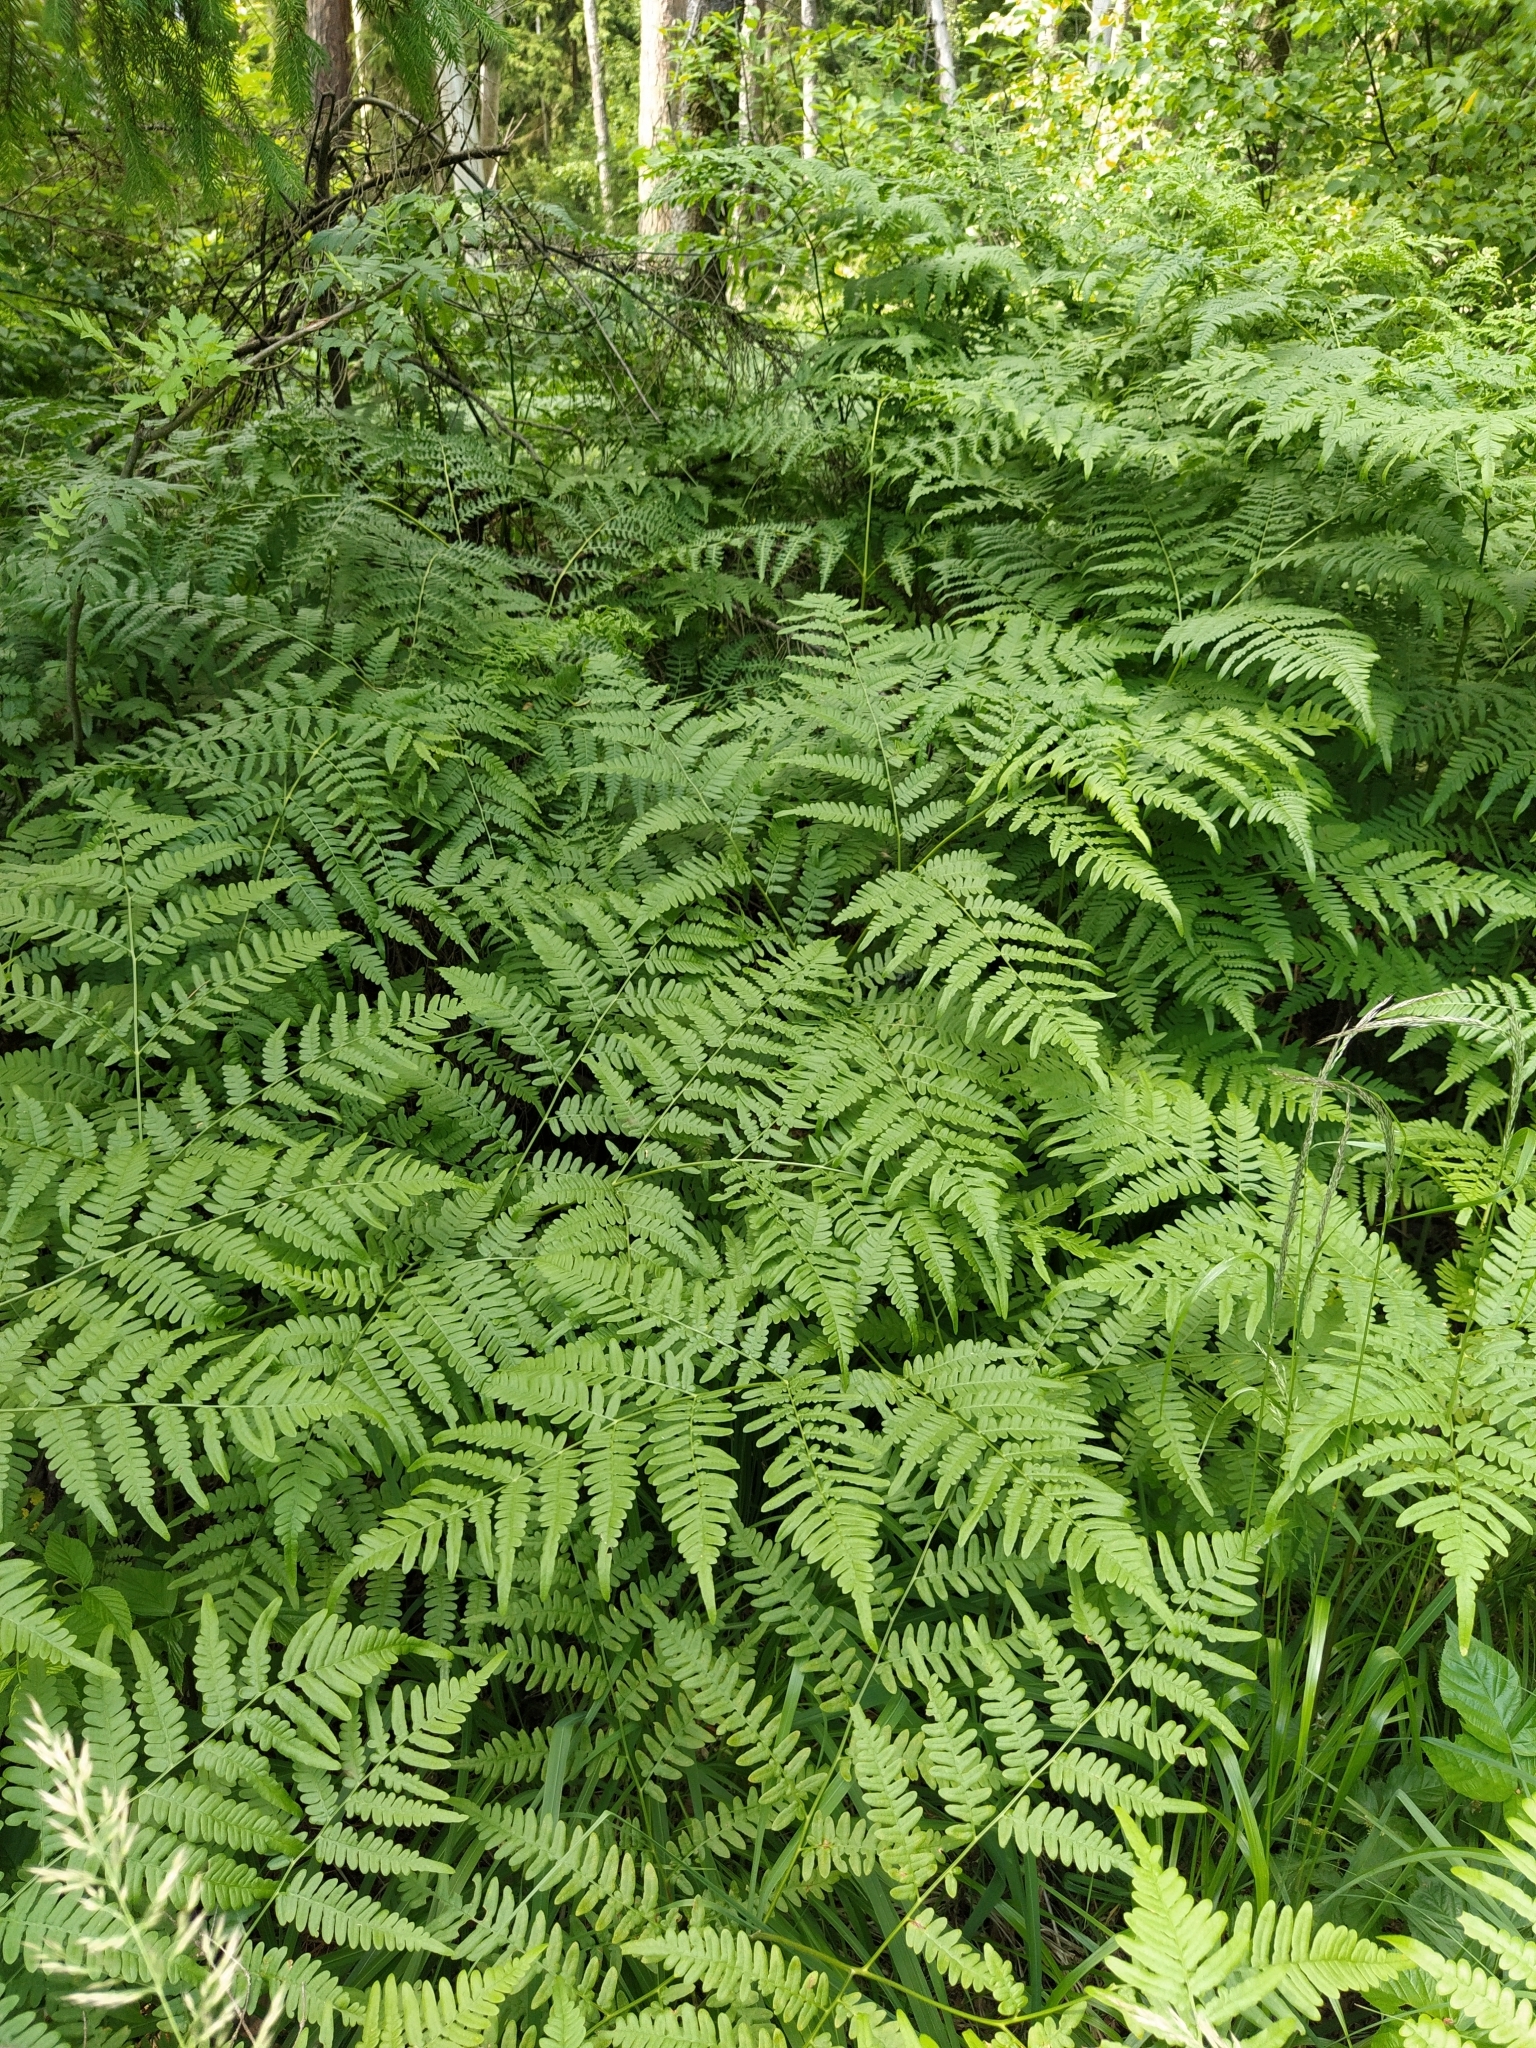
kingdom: Plantae
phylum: Tracheophyta
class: Polypodiopsida
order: Polypodiales
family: Dennstaedtiaceae
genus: Pteridium
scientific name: Pteridium aquilinum
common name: Bracken
